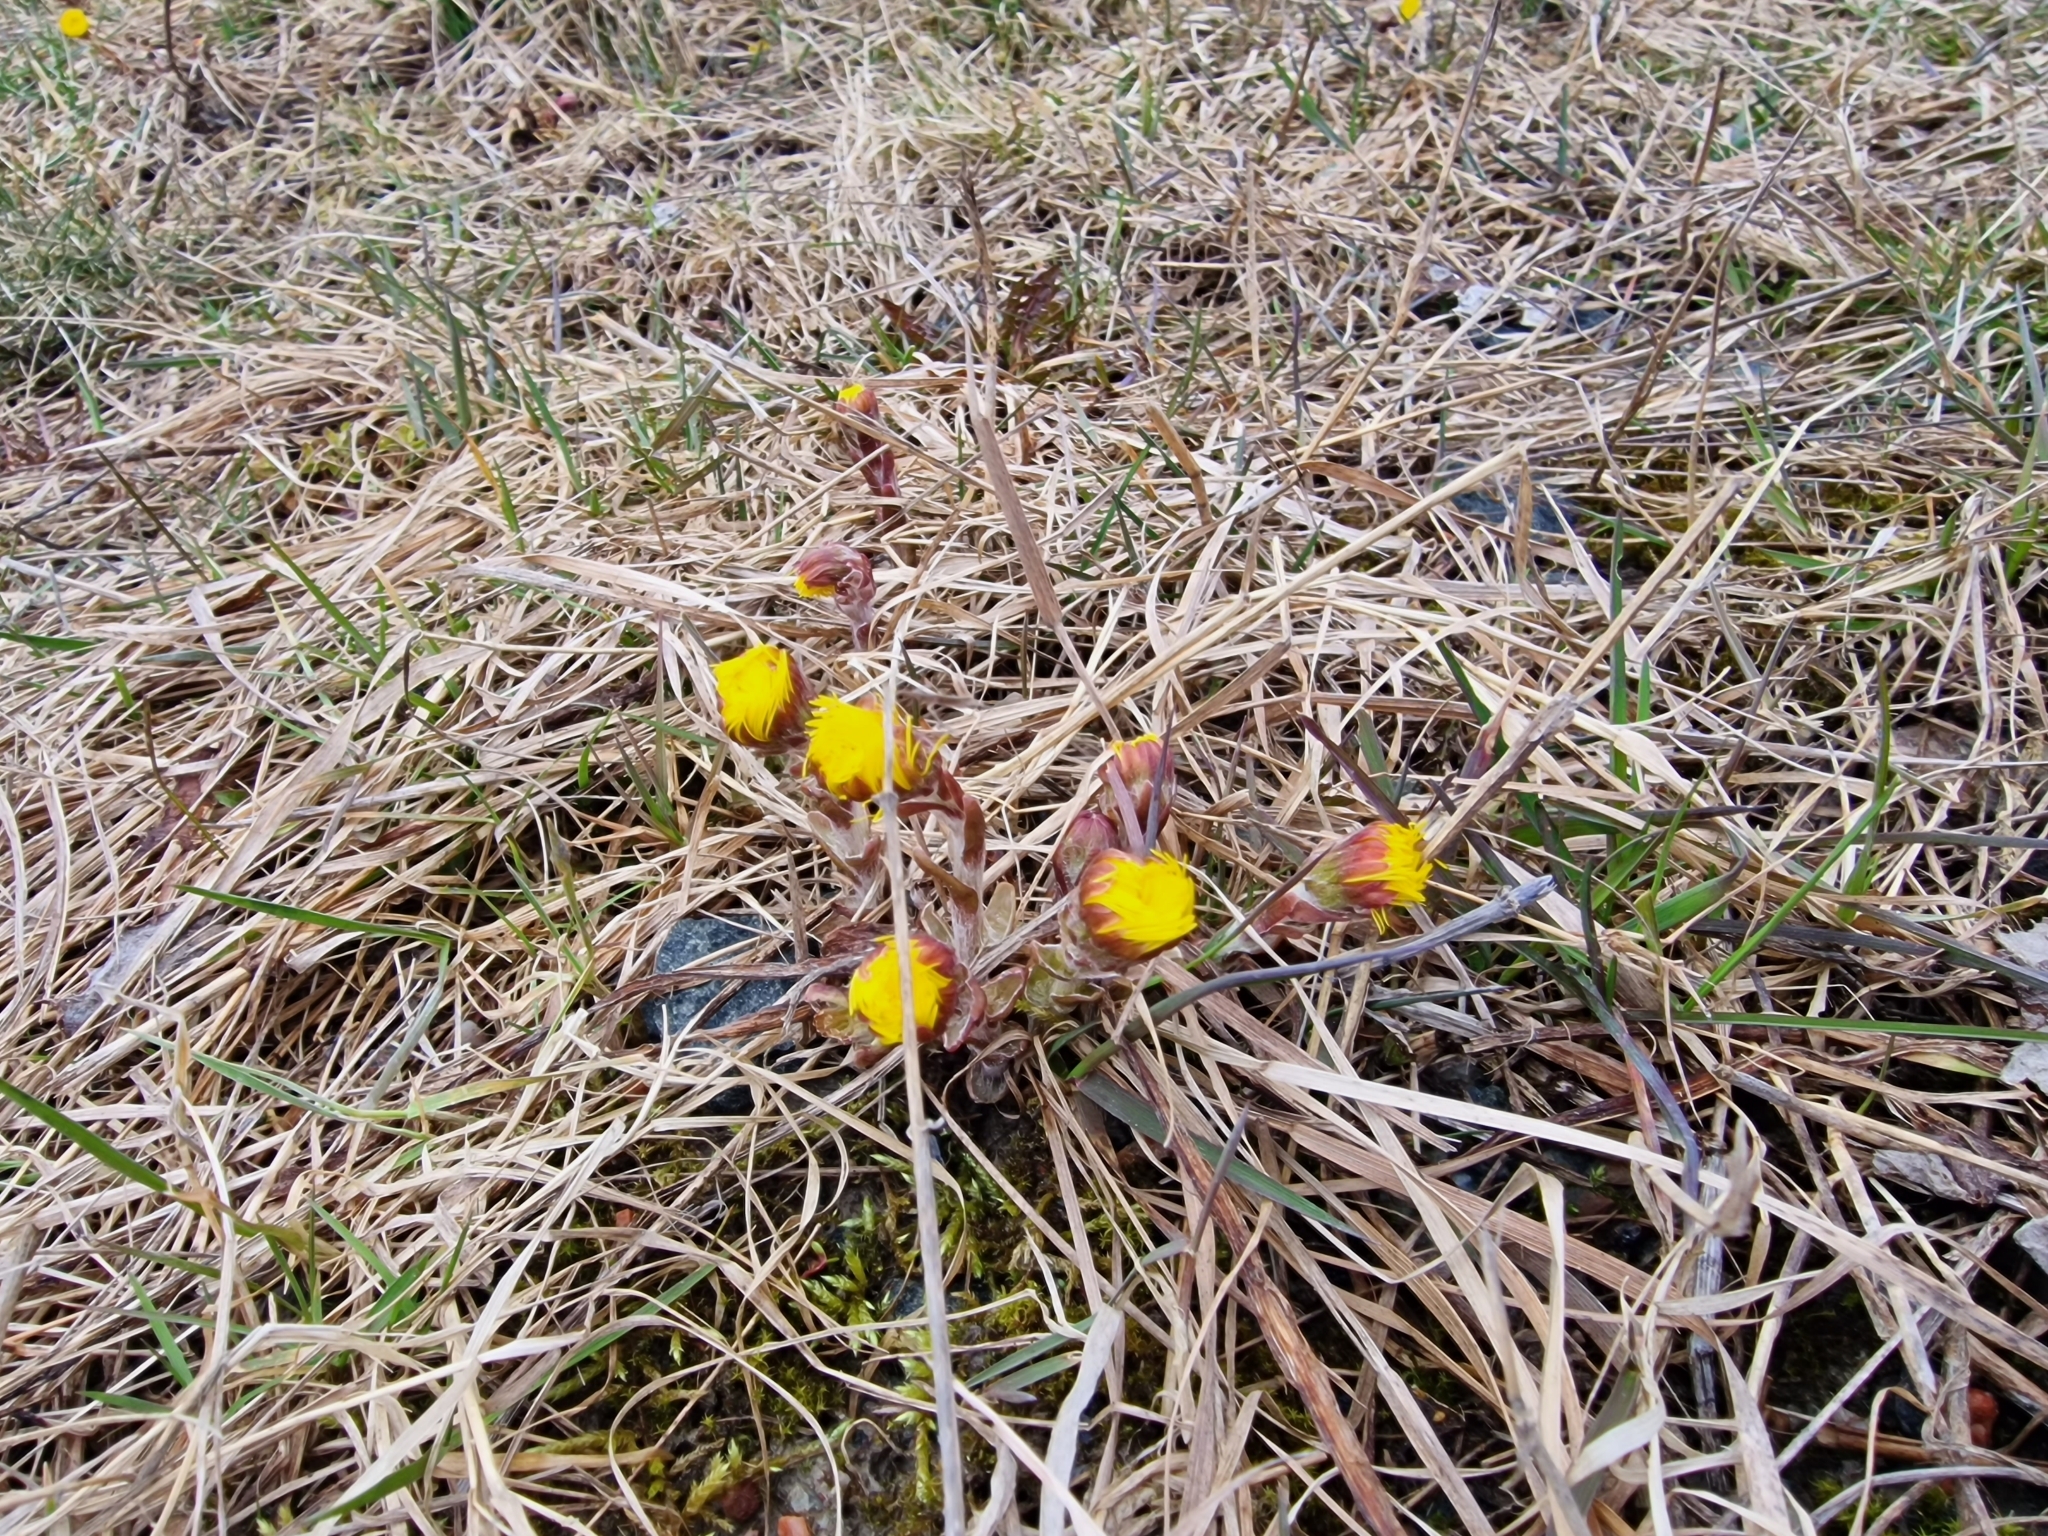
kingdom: Plantae
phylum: Tracheophyta
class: Magnoliopsida
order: Asterales
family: Asteraceae
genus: Tussilago
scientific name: Tussilago farfara
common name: Coltsfoot
